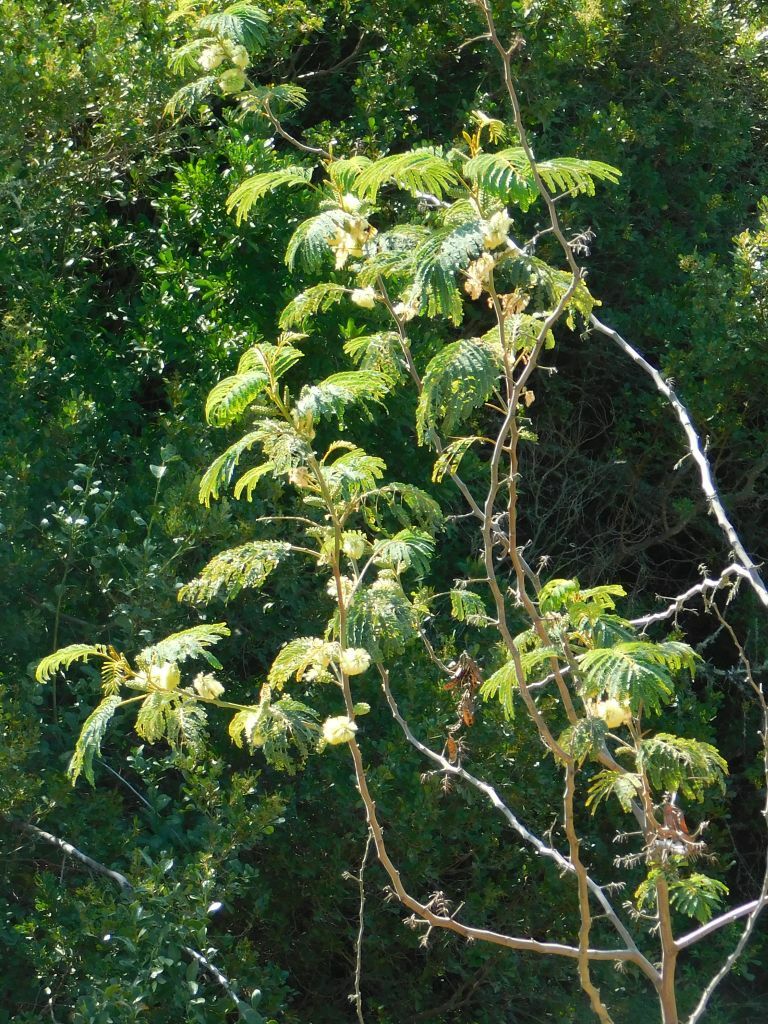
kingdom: Plantae
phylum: Tracheophyta
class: Magnoliopsida
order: Fabales
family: Fabaceae
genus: Paraserianthes
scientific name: Paraserianthes lophantha
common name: Plume albizia
